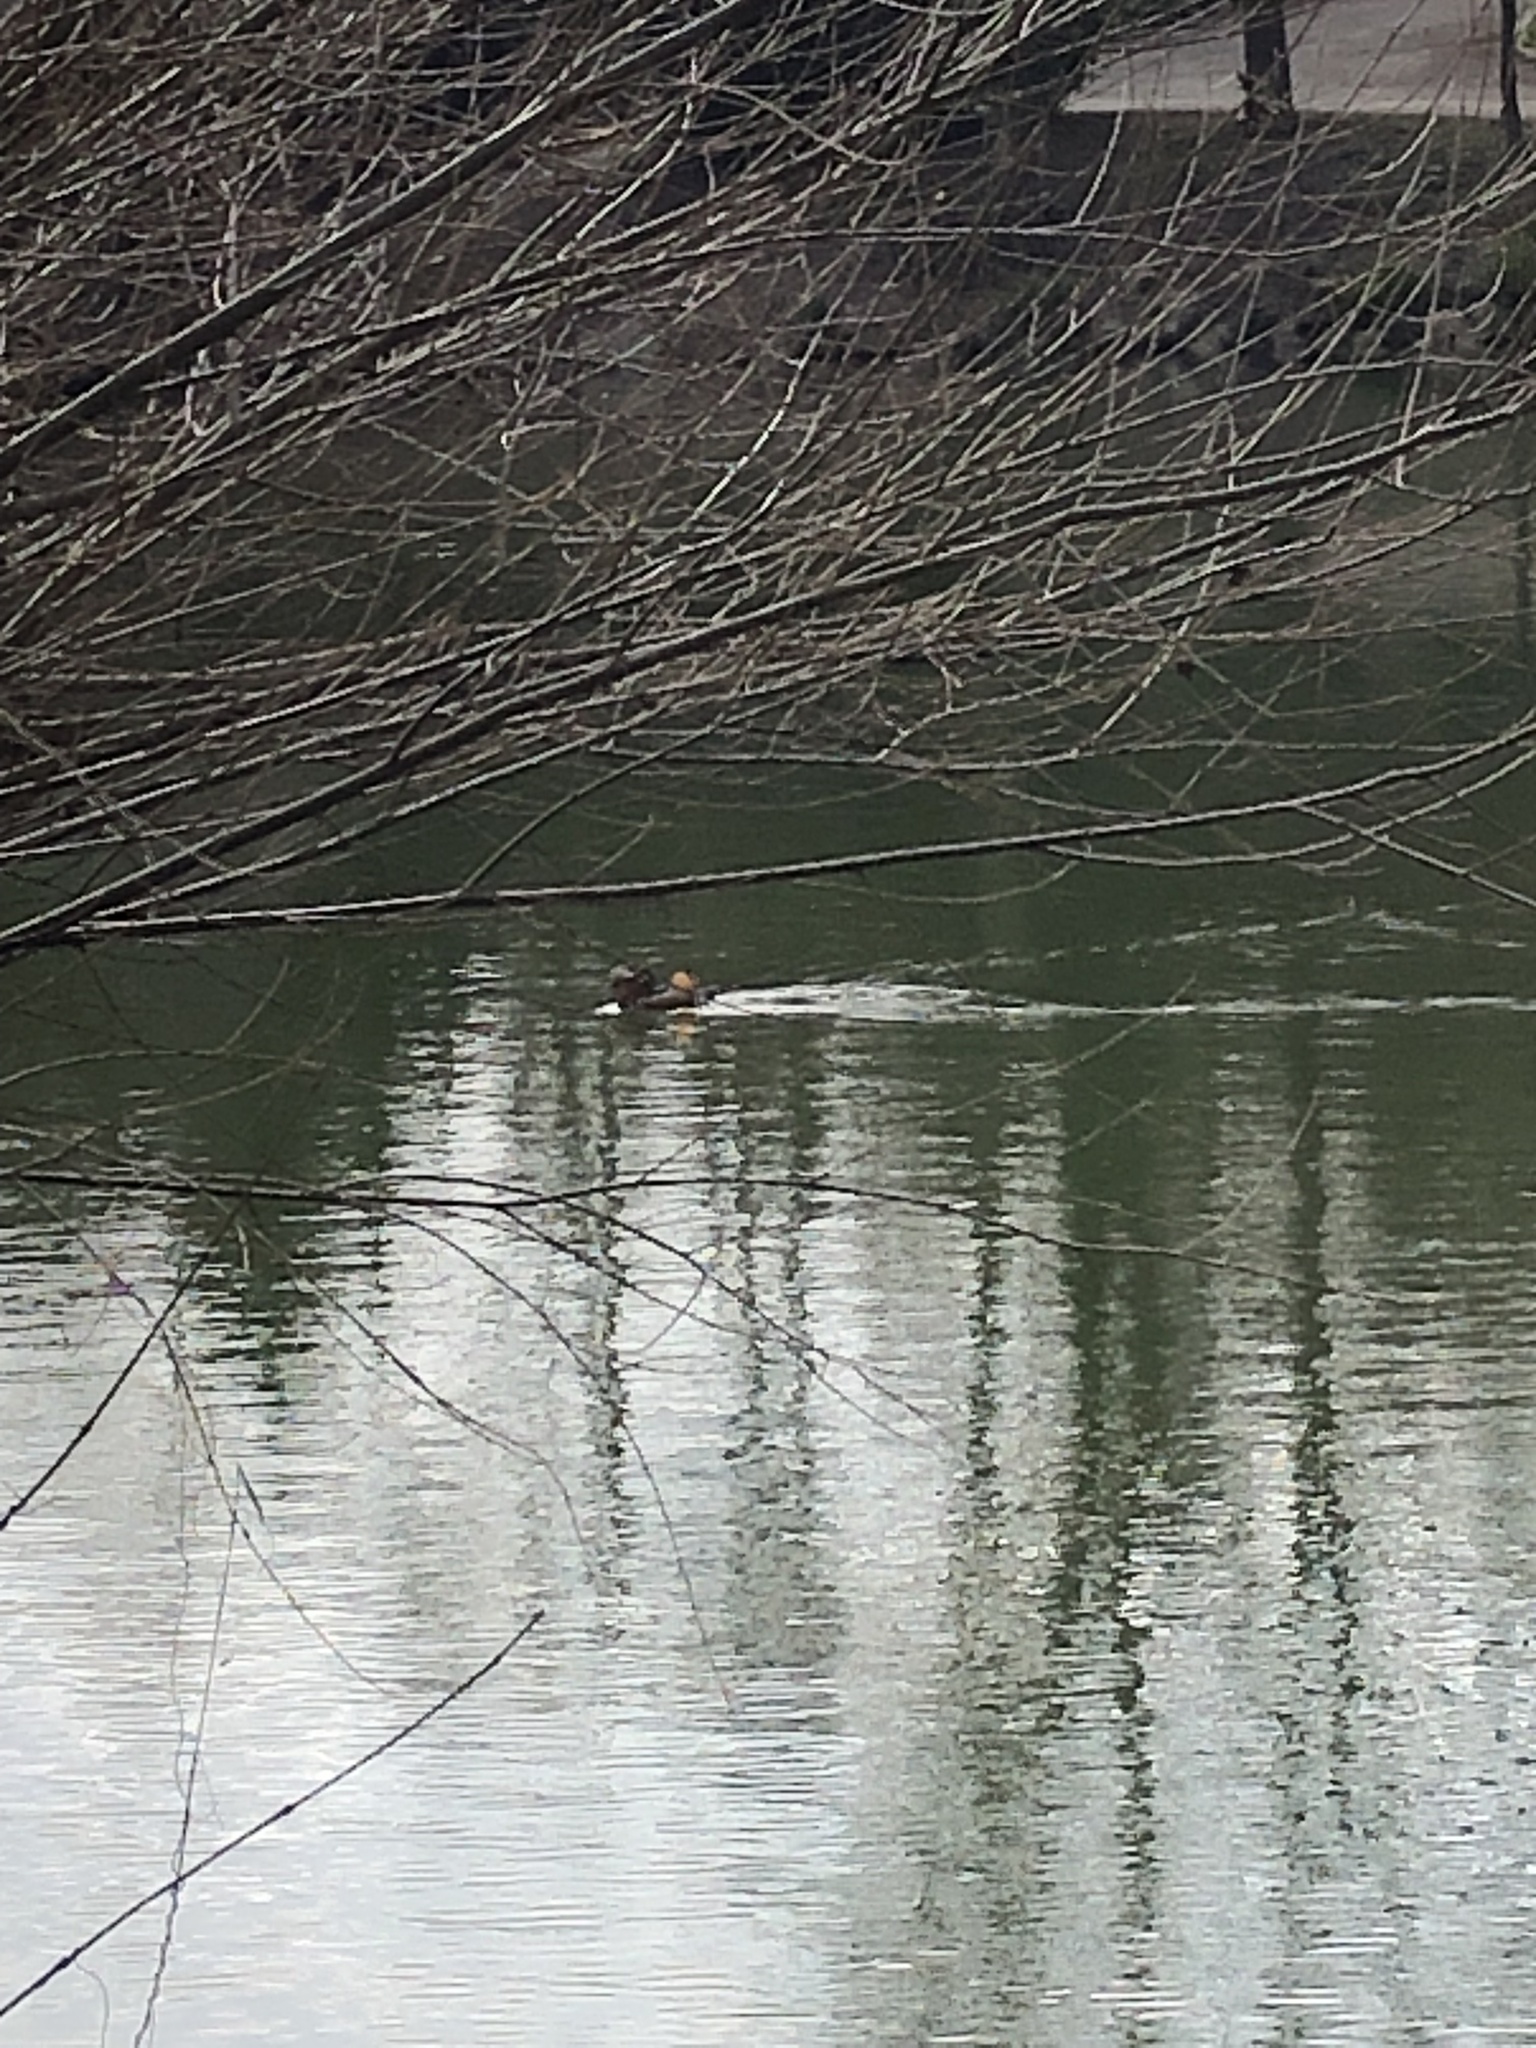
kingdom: Animalia
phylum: Chordata
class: Aves
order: Anseriformes
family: Anatidae
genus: Aix
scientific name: Aix galericulata
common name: Mandarin duck
